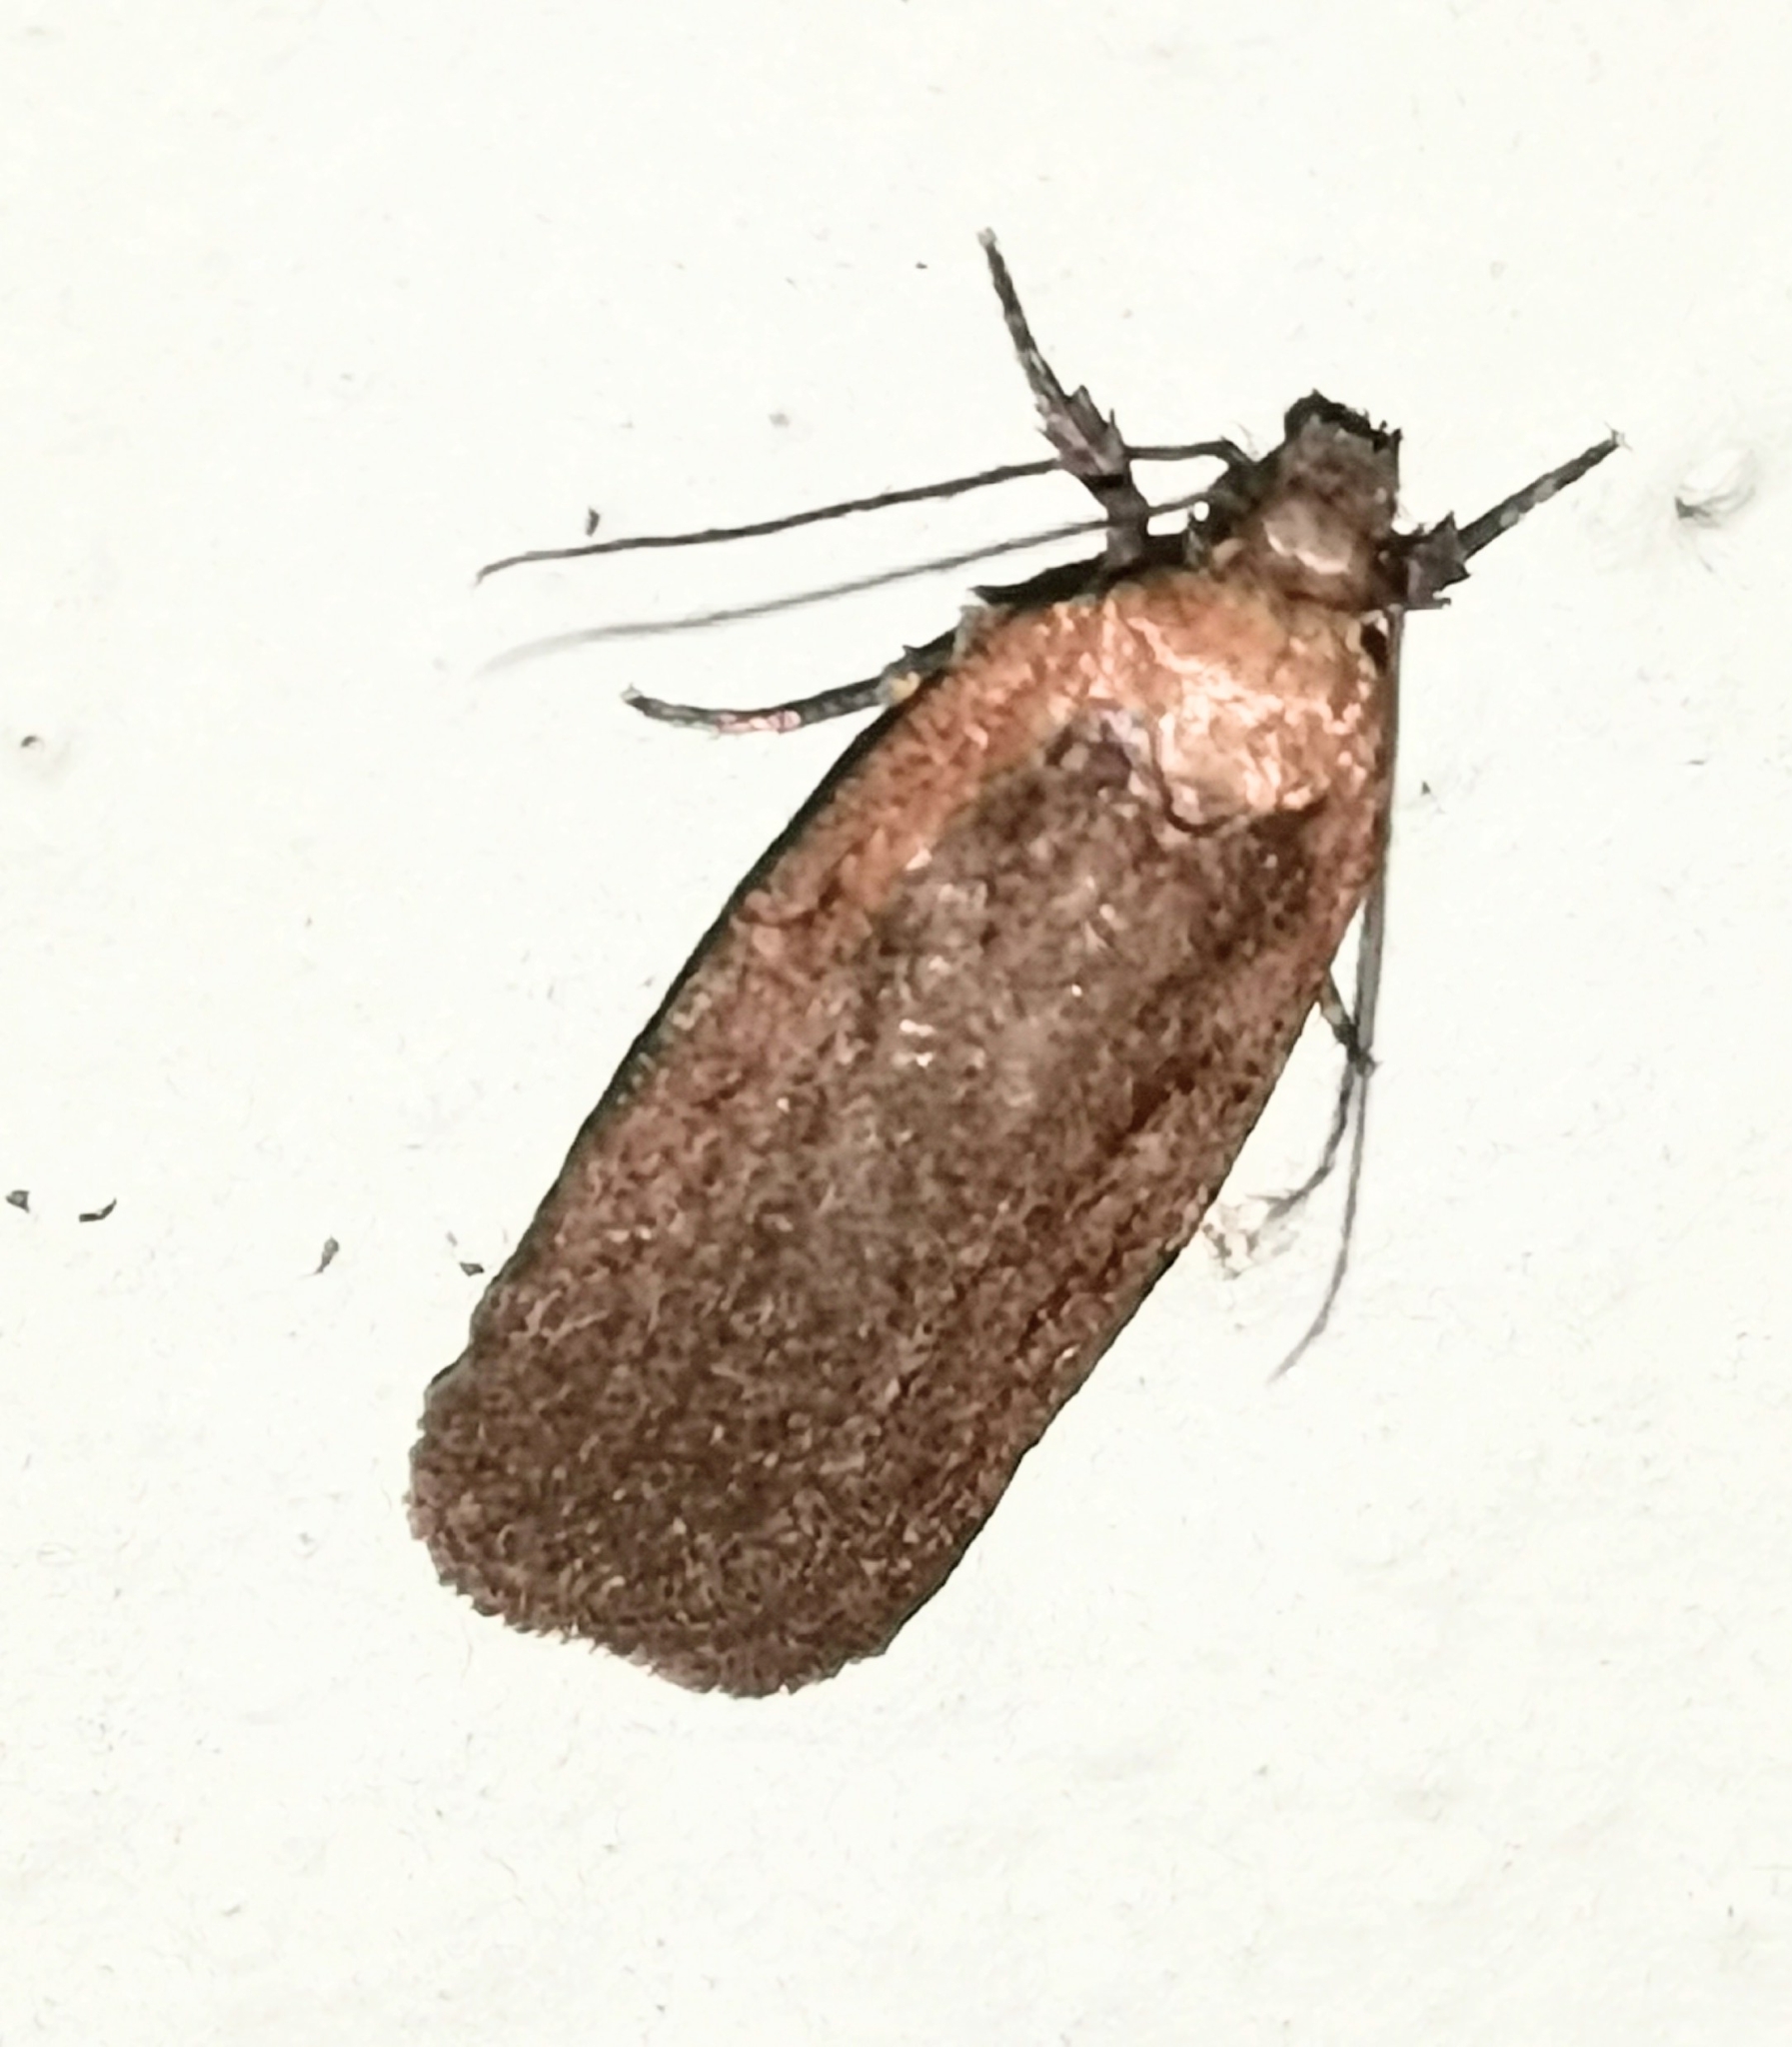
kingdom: Animalia
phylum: Arthropoda
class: Insecta
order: Lepidoptera
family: Depressariidae
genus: Depressaria
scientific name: Depressaria sordidatella
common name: Chervil flat-body
